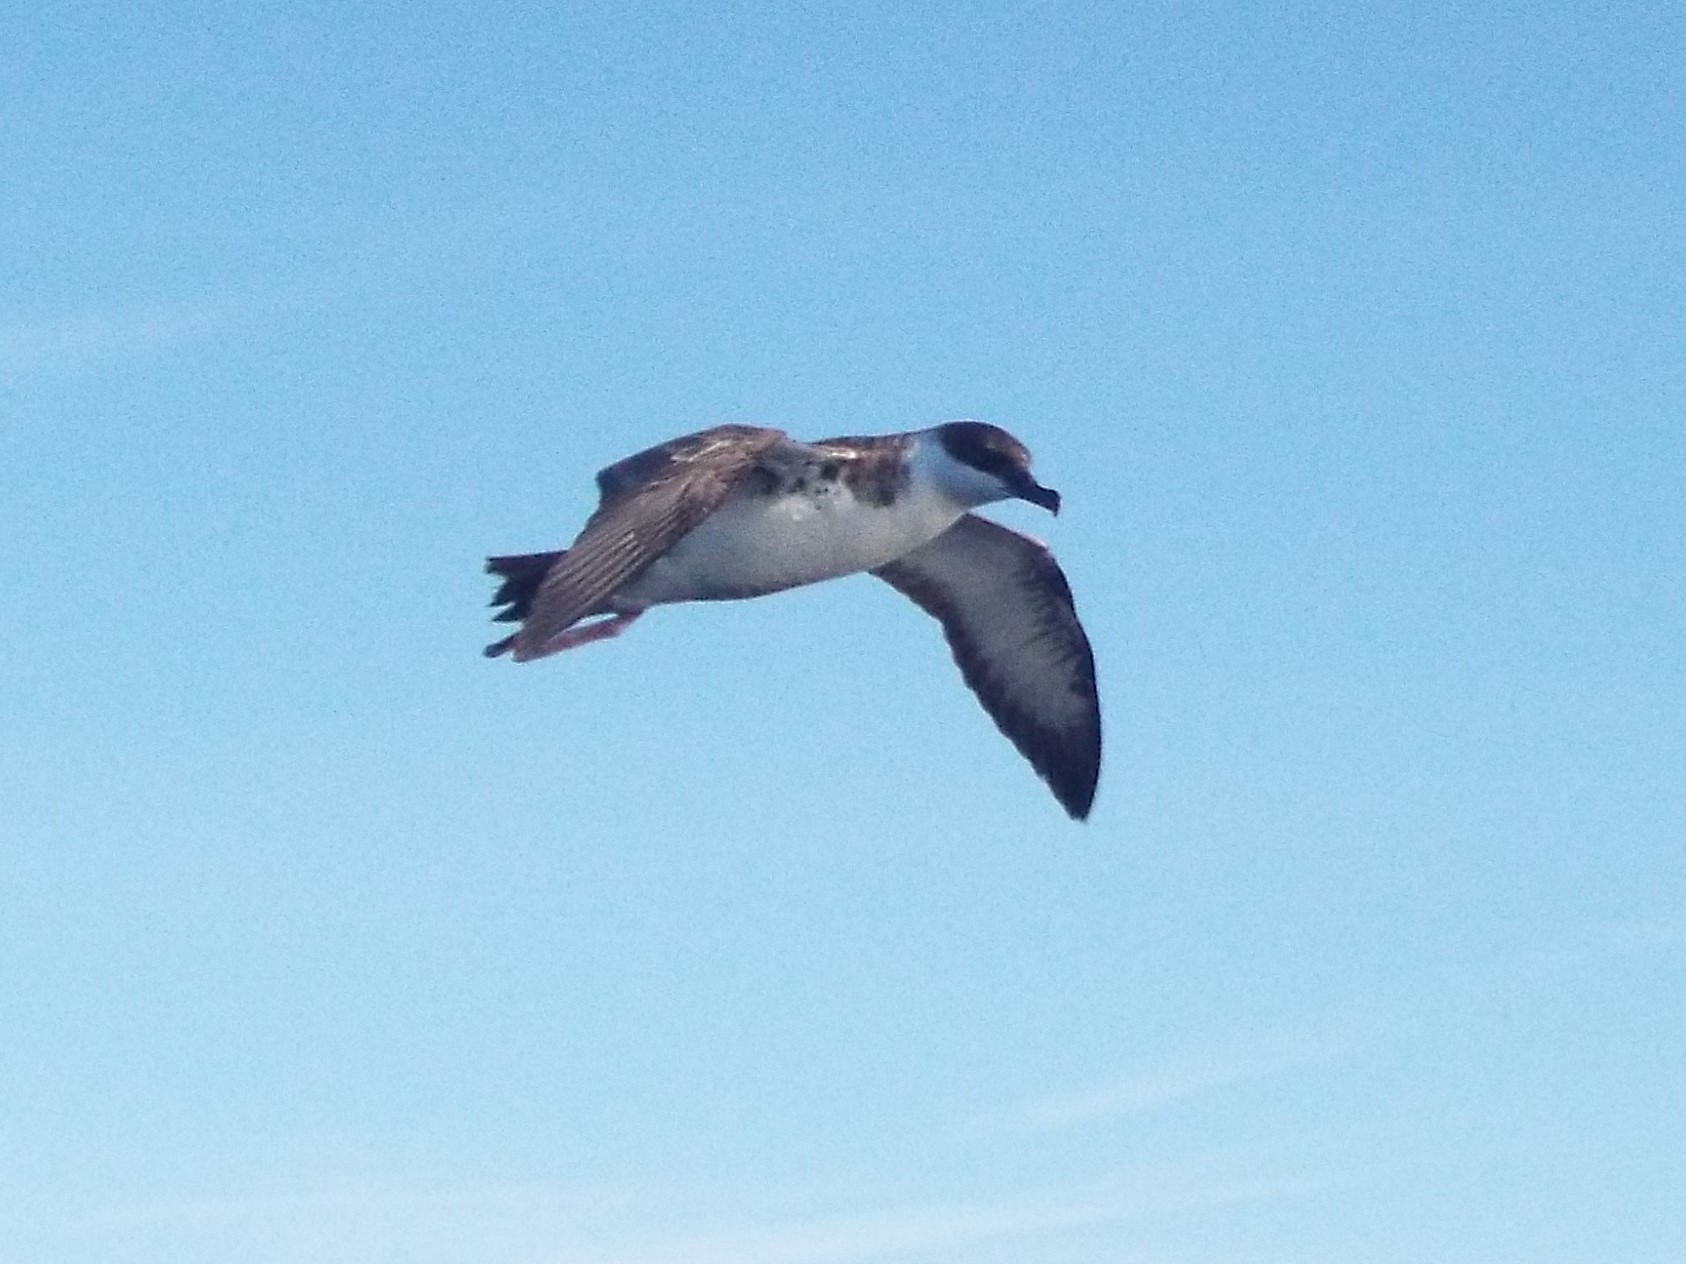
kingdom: Animalia
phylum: Chordata
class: Aves
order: Procellariiformes
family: Procellariidae
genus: Puffinus
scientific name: Puffinus gravis
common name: Great shearwater
